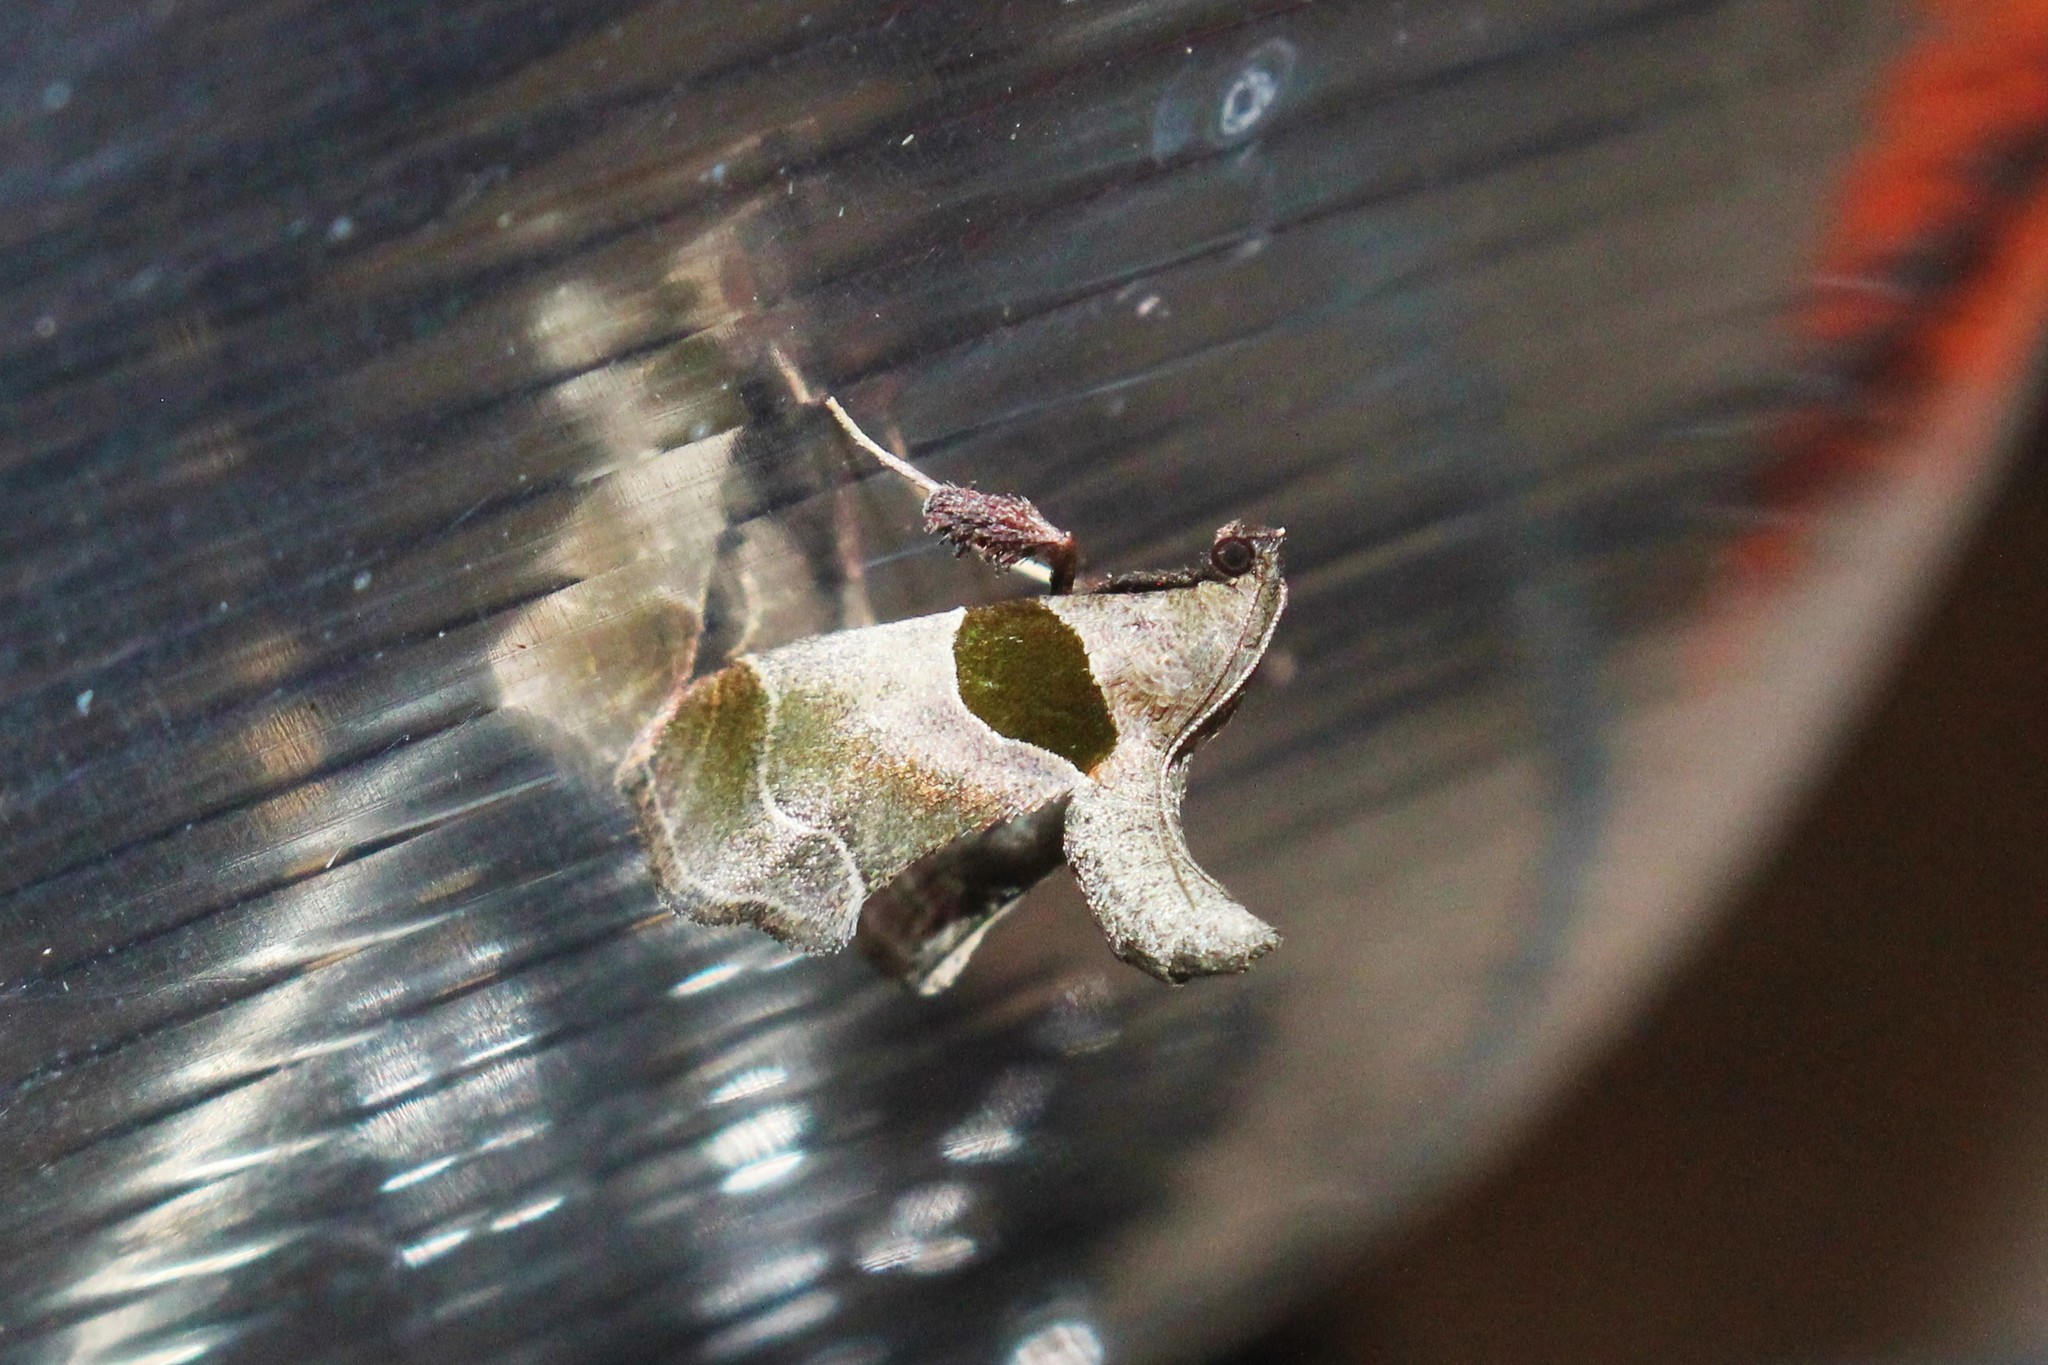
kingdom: Animalia
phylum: Arthropoda
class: Insecta
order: Lepidoptera
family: Pyralidae
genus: Tosale
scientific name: Tosale oviplagalis
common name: Dimorphic tosale moth
